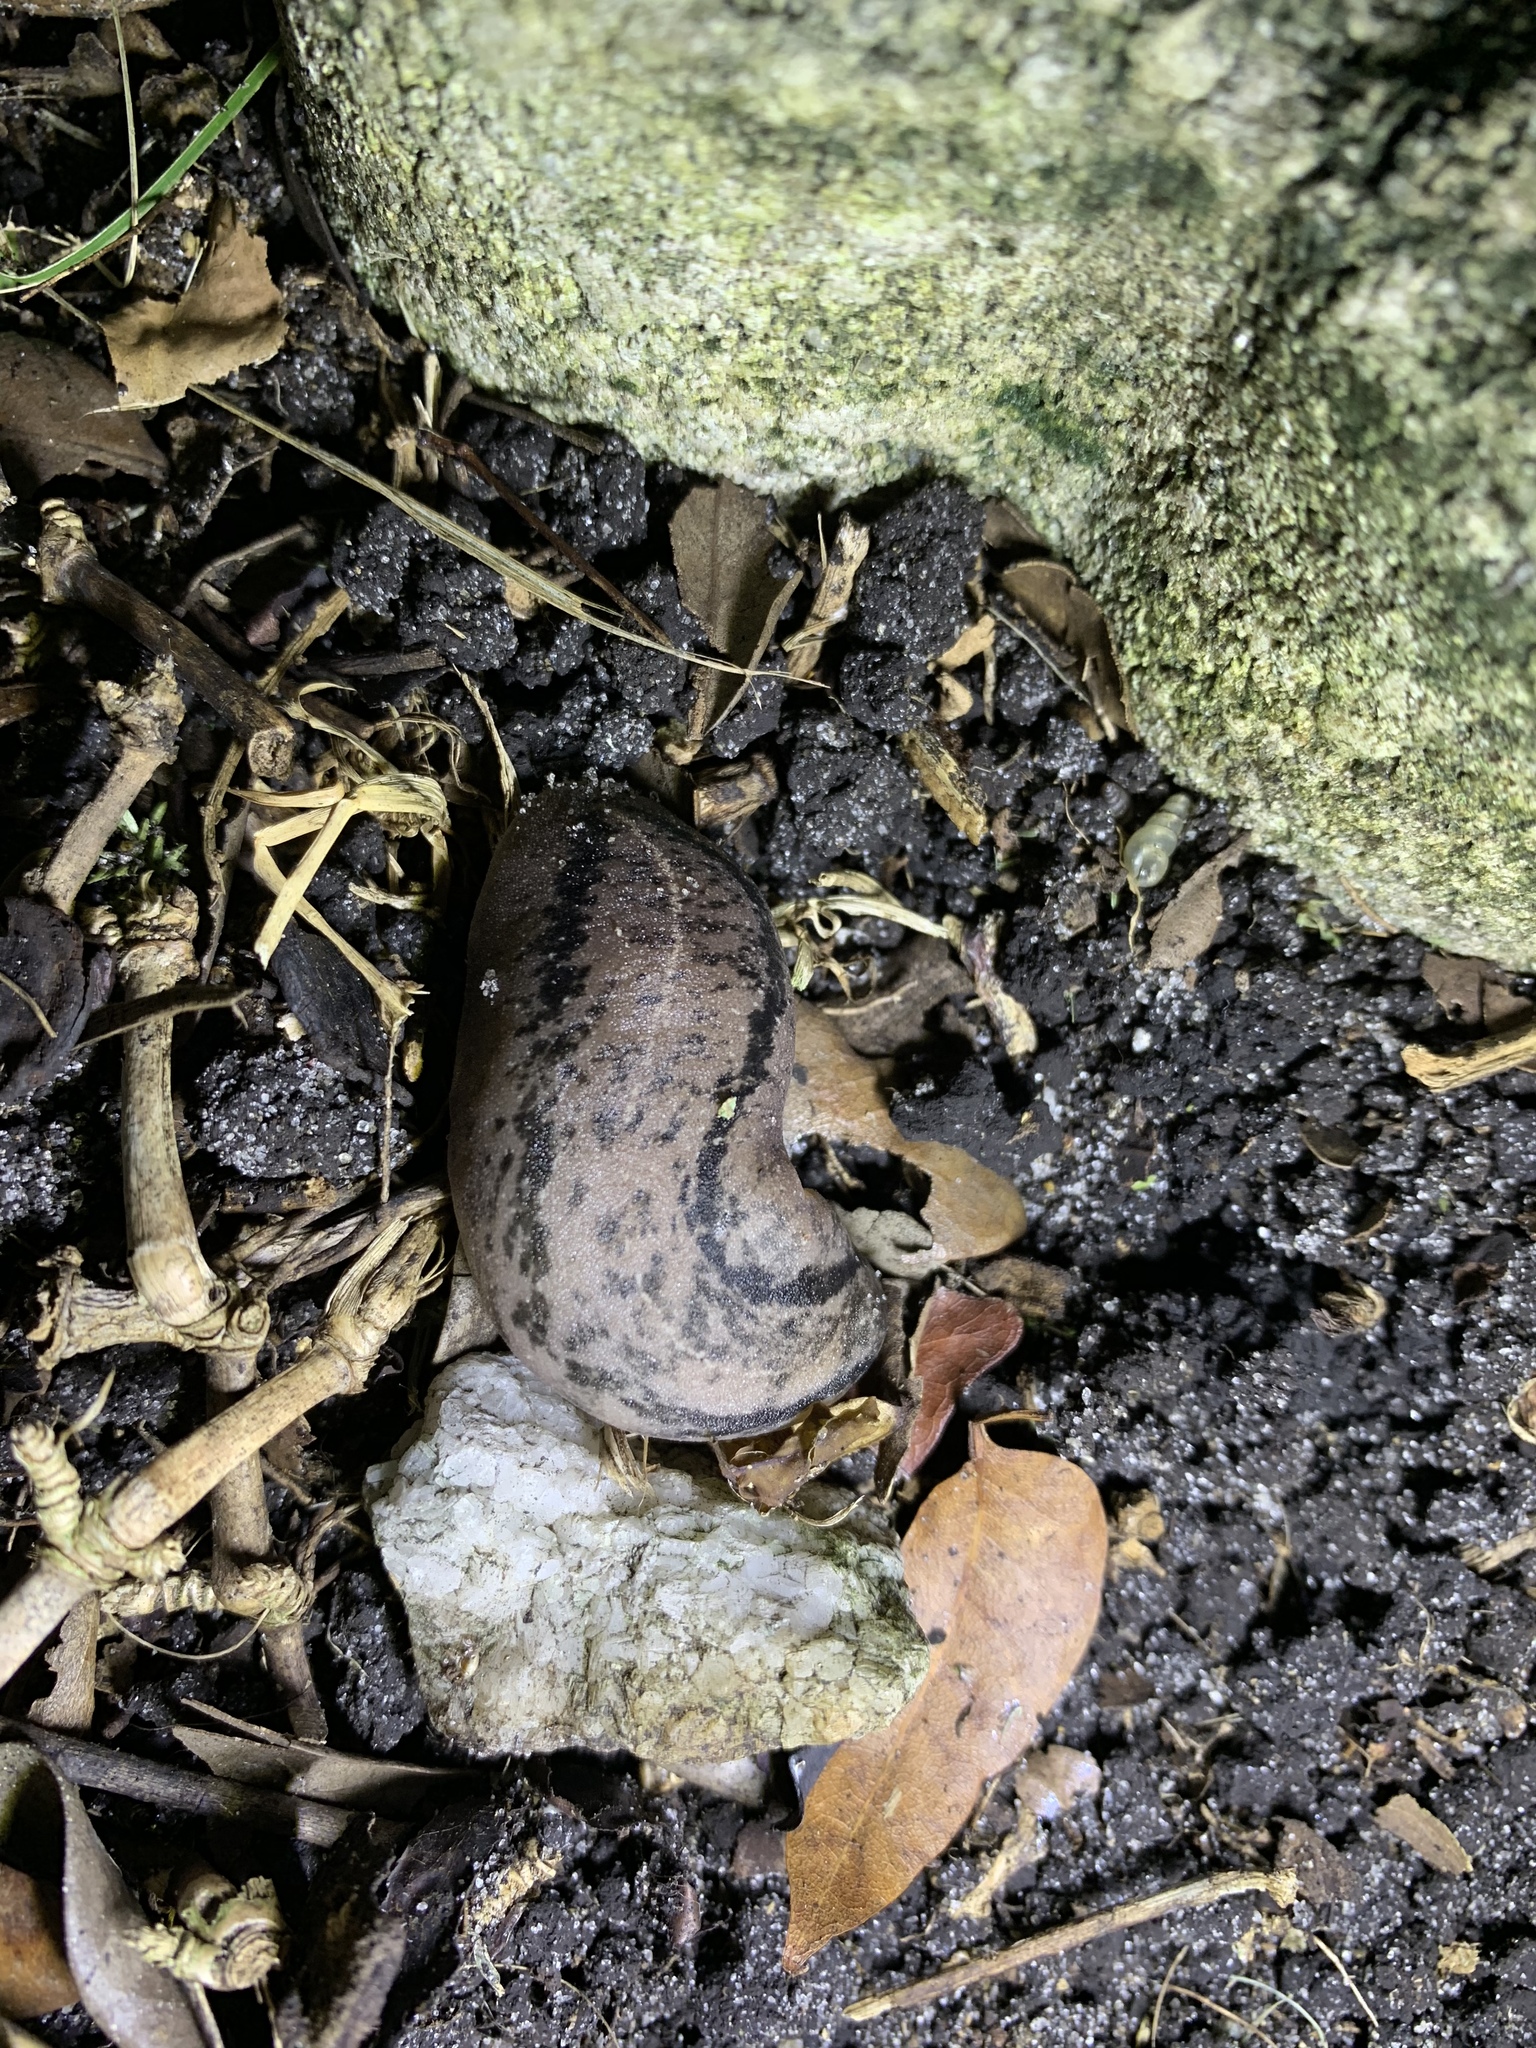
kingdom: Animalia
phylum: Mollusca
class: Gastropoda
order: Systellommatophora
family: Veronicellidae
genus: Leidyula
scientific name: Leidyula floridana
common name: Florida leatherleaf
